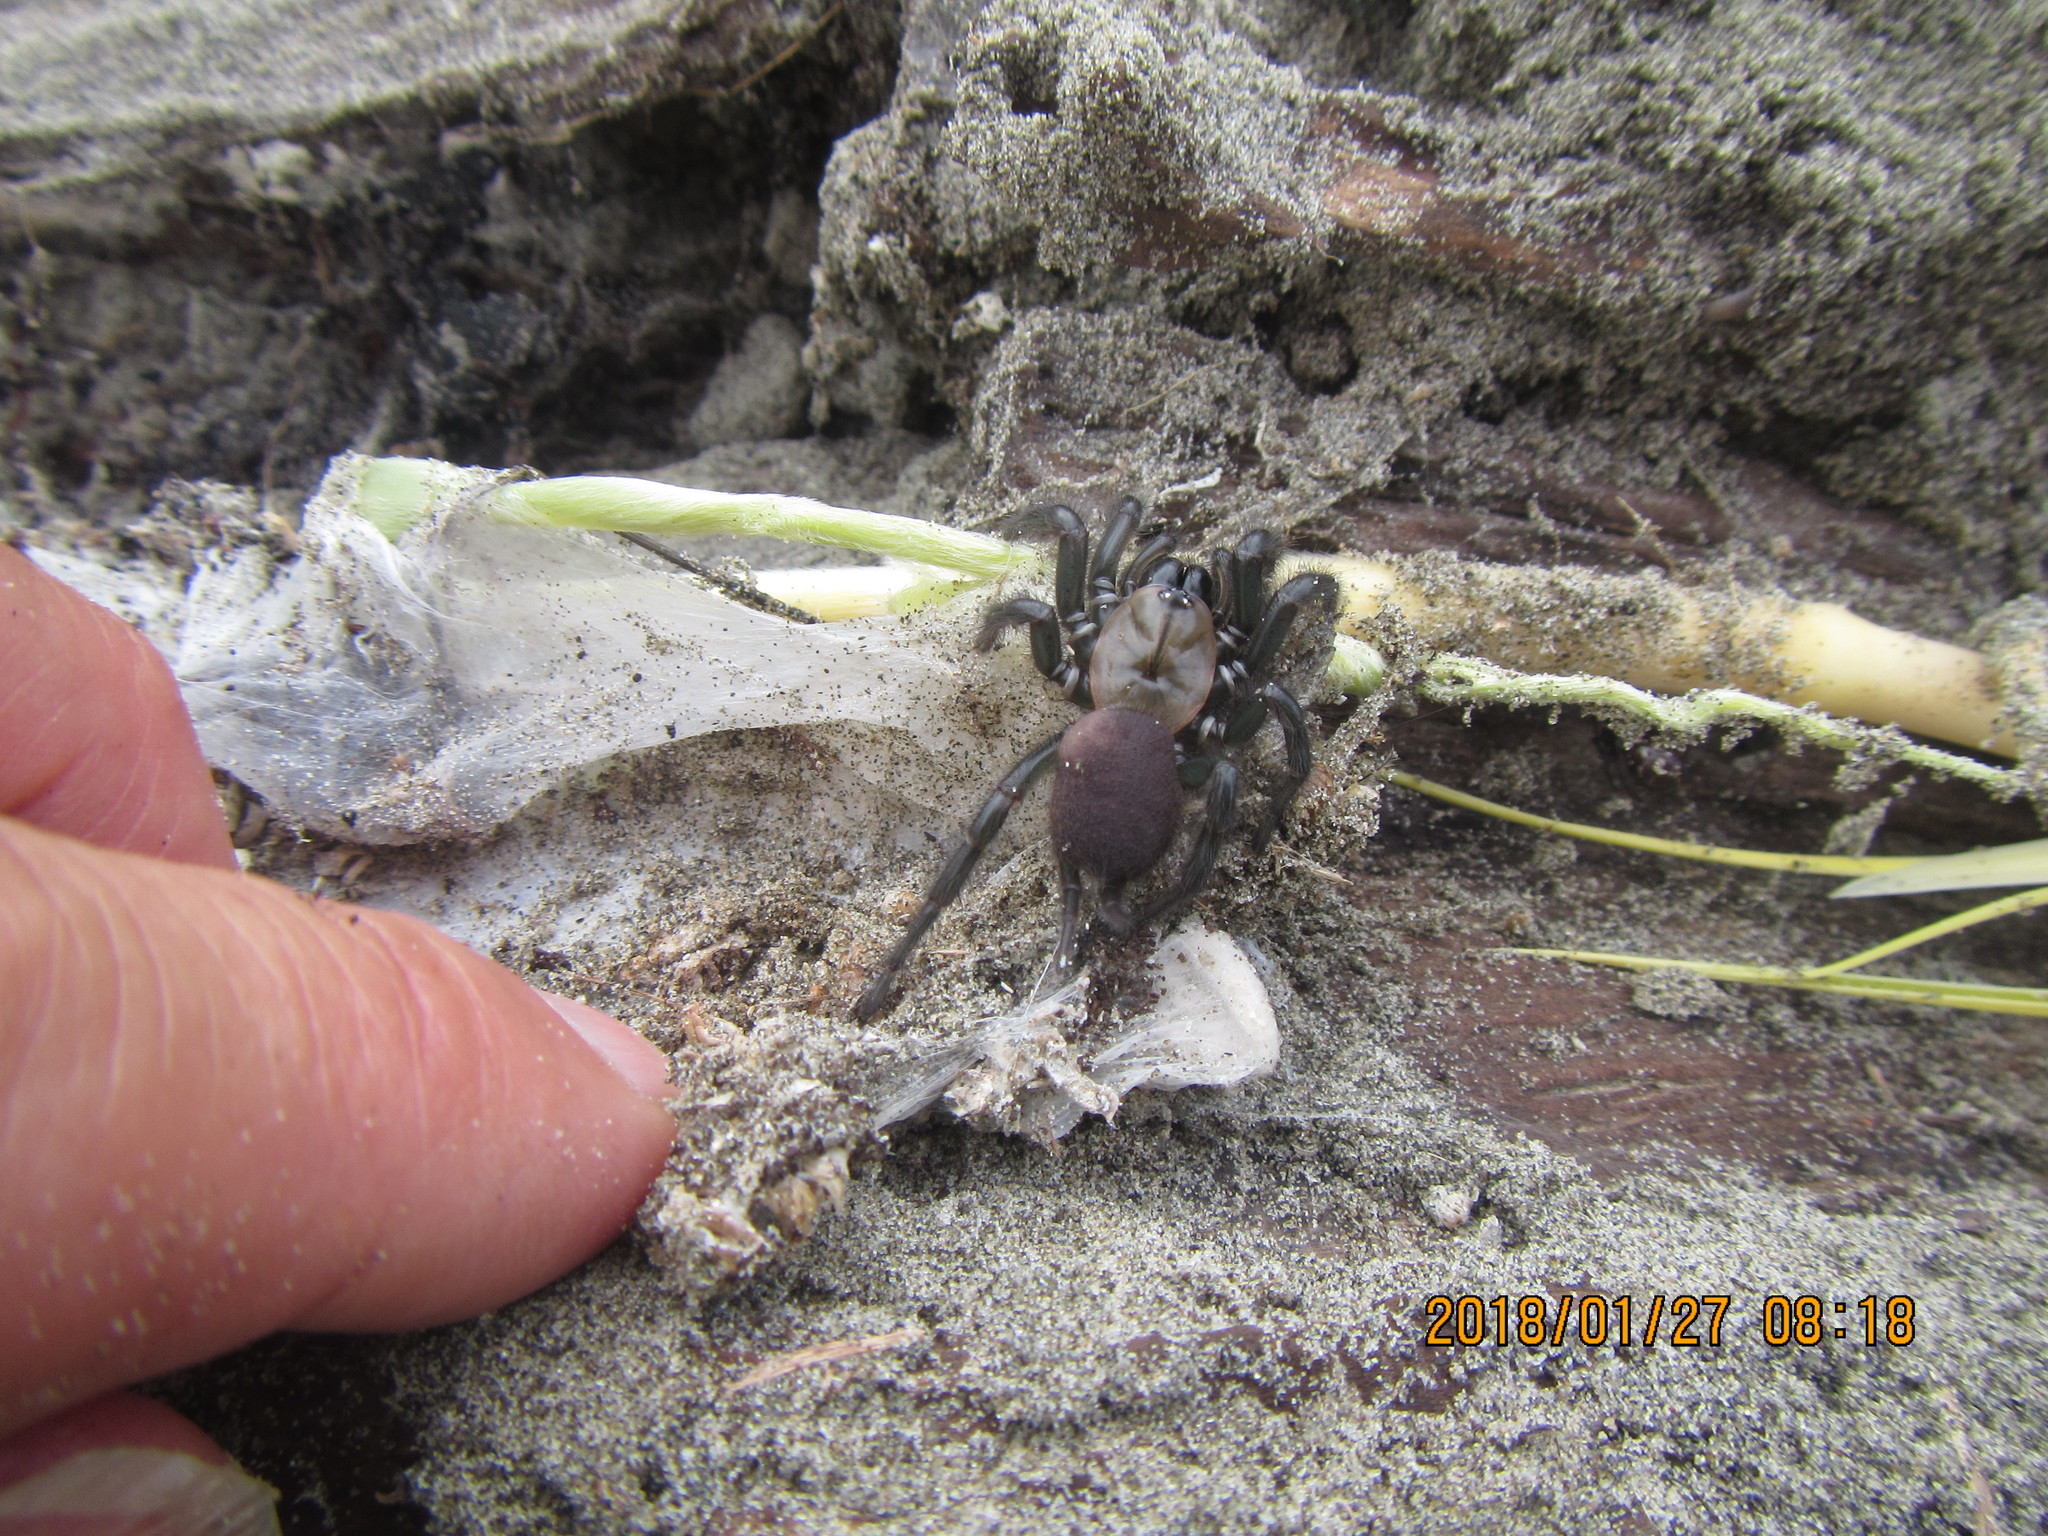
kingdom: Animalia
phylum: Arthropoda
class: Arachnida
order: Araneae
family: Porrhothelidae
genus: Porrhothele
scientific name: Porrhothele antipodiana
